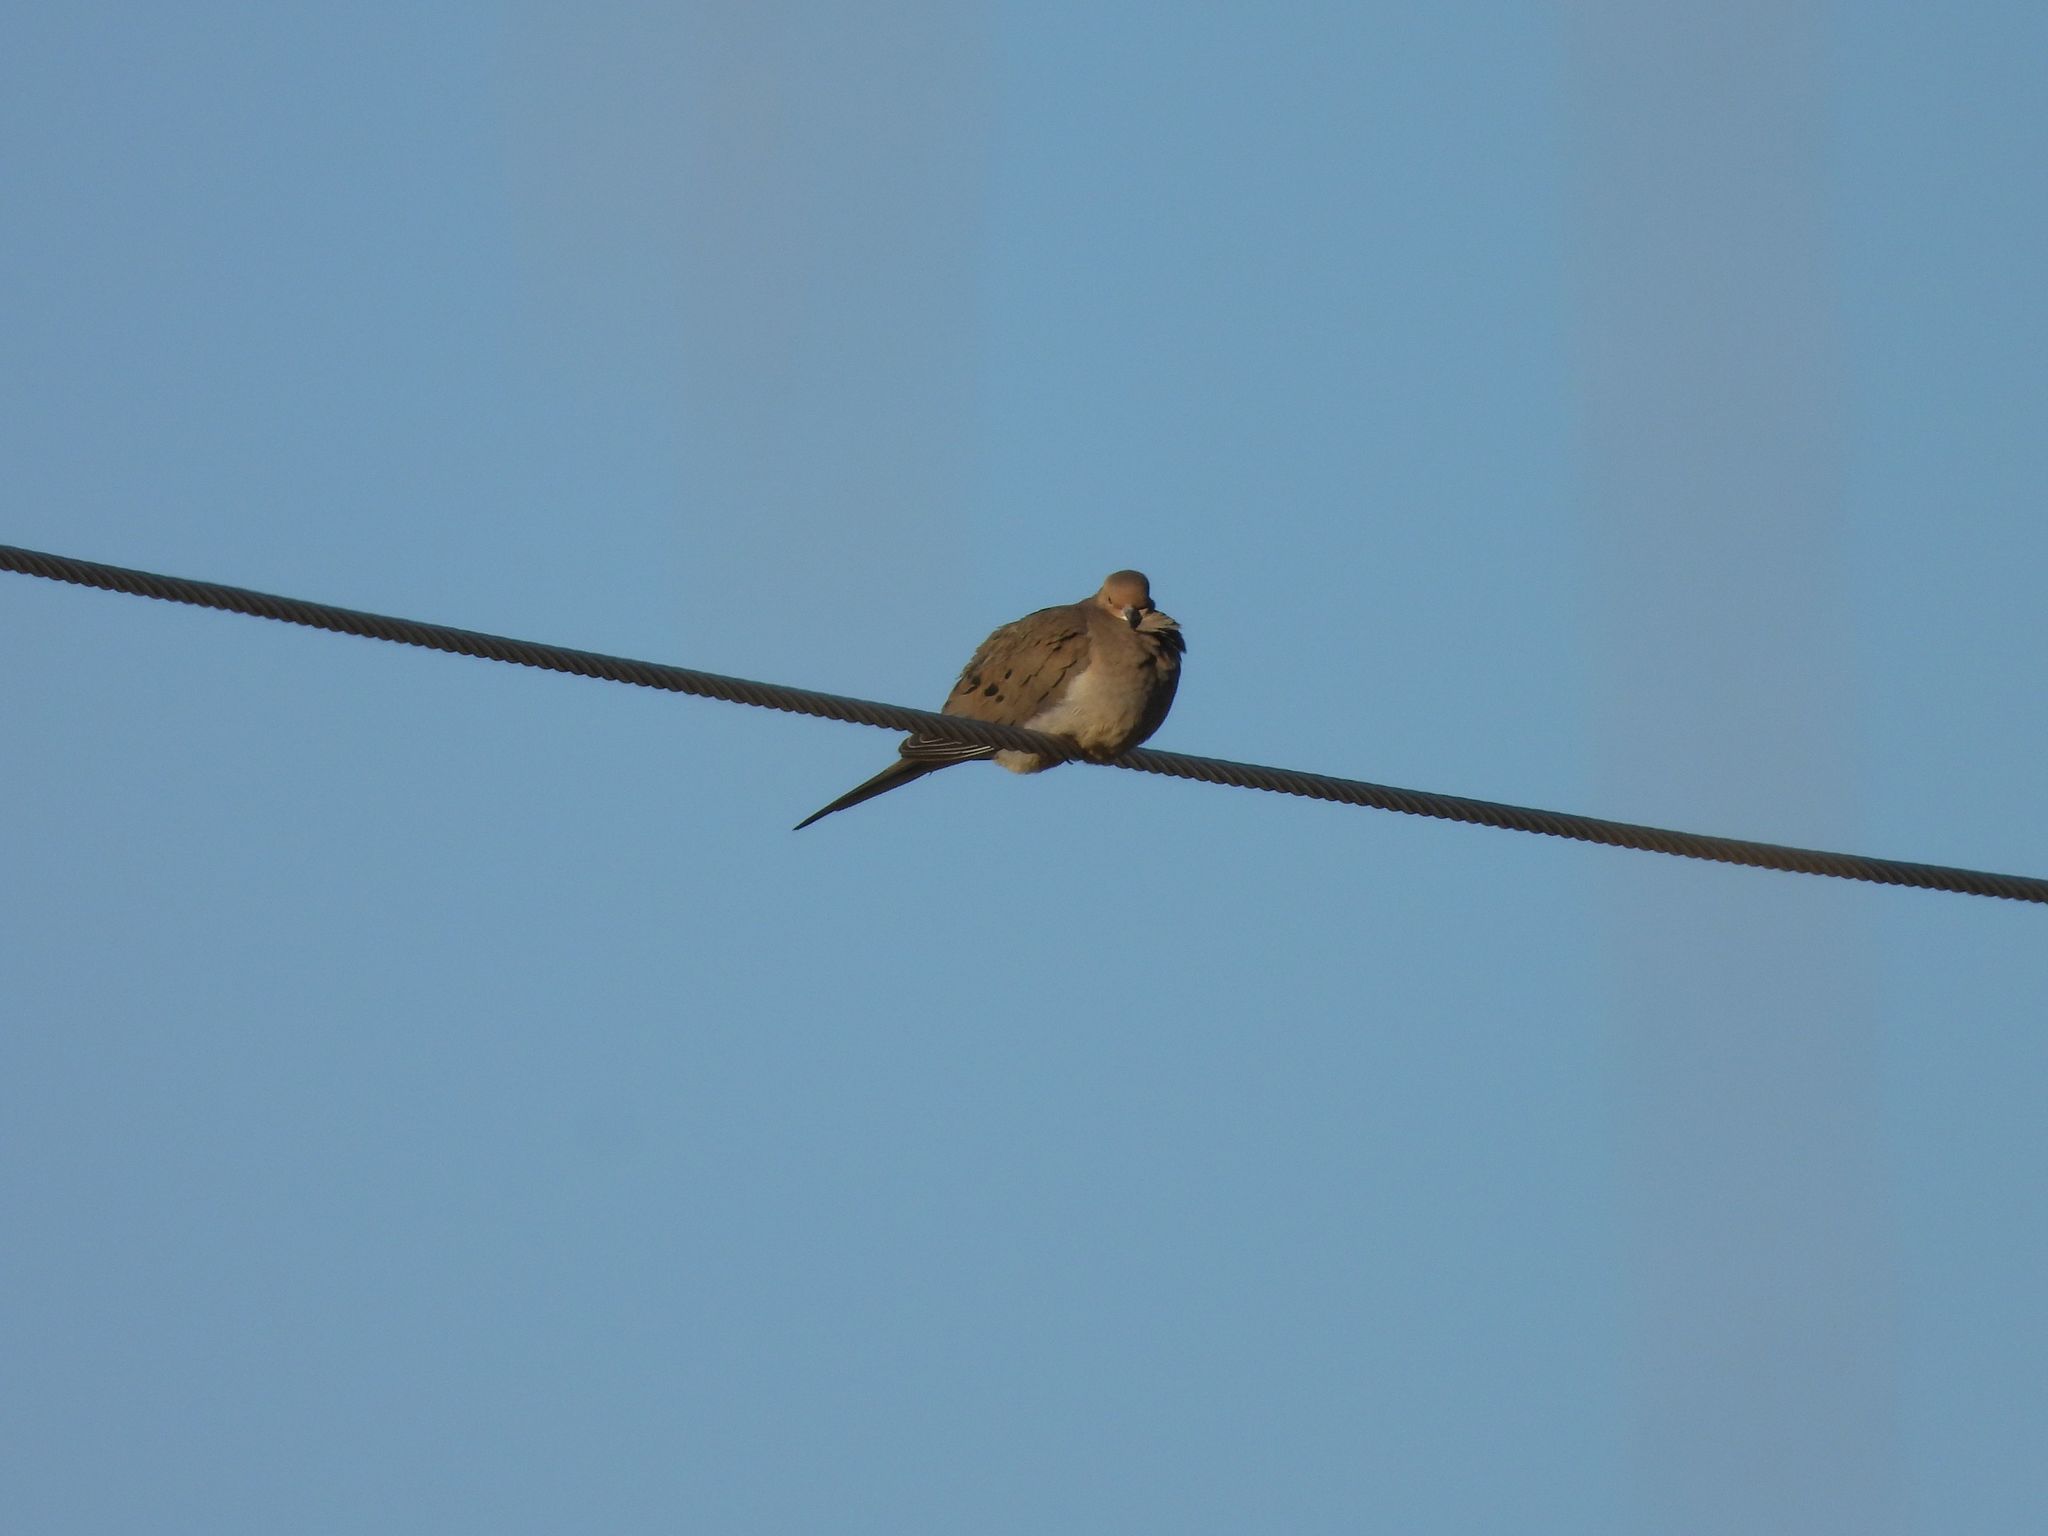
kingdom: Animalia
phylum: Chordata
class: Aves
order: Columbiformes
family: Columbidae
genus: Zenaida
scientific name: Zenaida macroura
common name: Mourning dove
